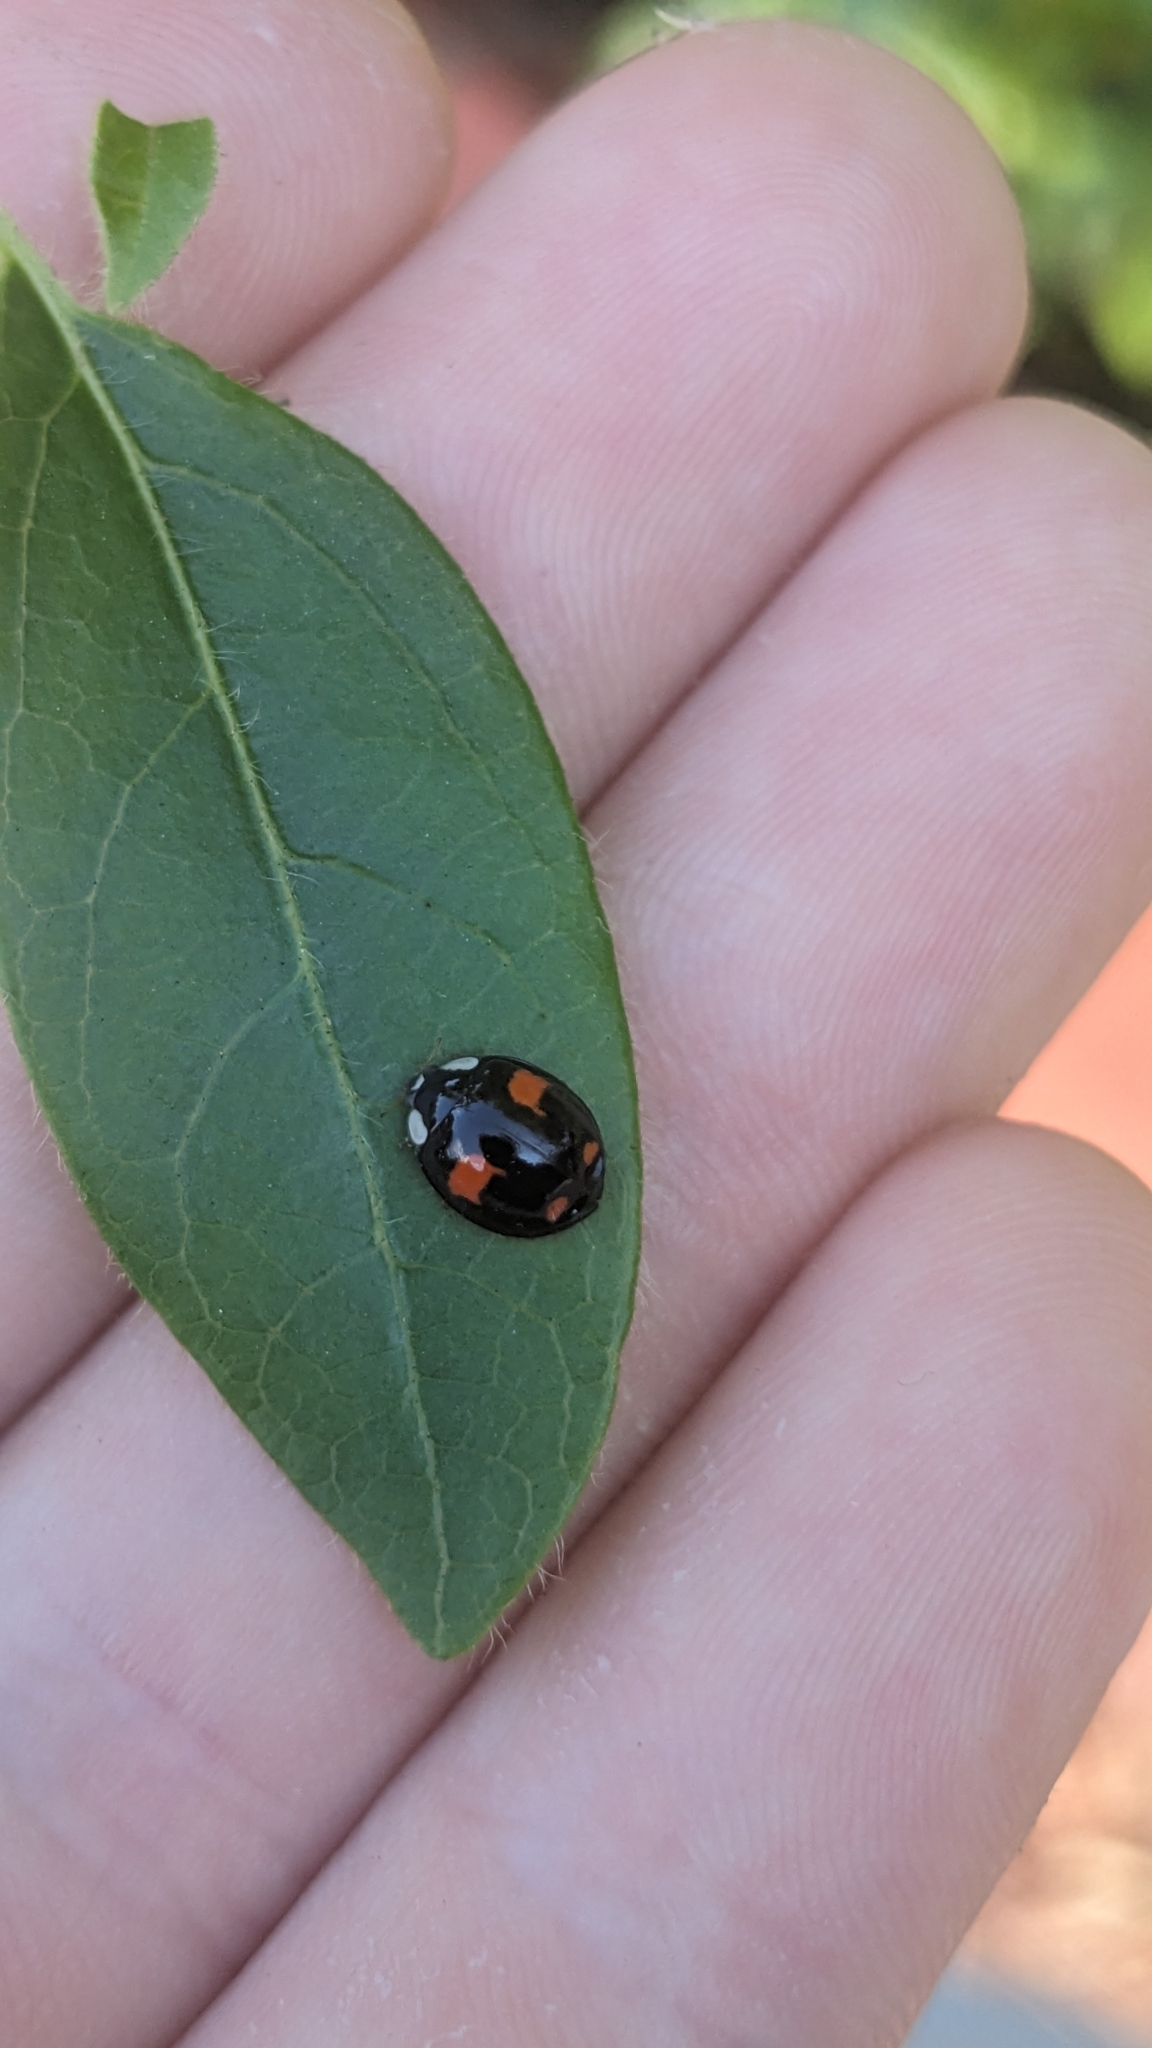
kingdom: Animalia
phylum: Arthropoda
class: Insecta
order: Coleoptera
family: Coccinellidae
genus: Harmonia
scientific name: Harmonia axyridis
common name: Harlequin ladybird
